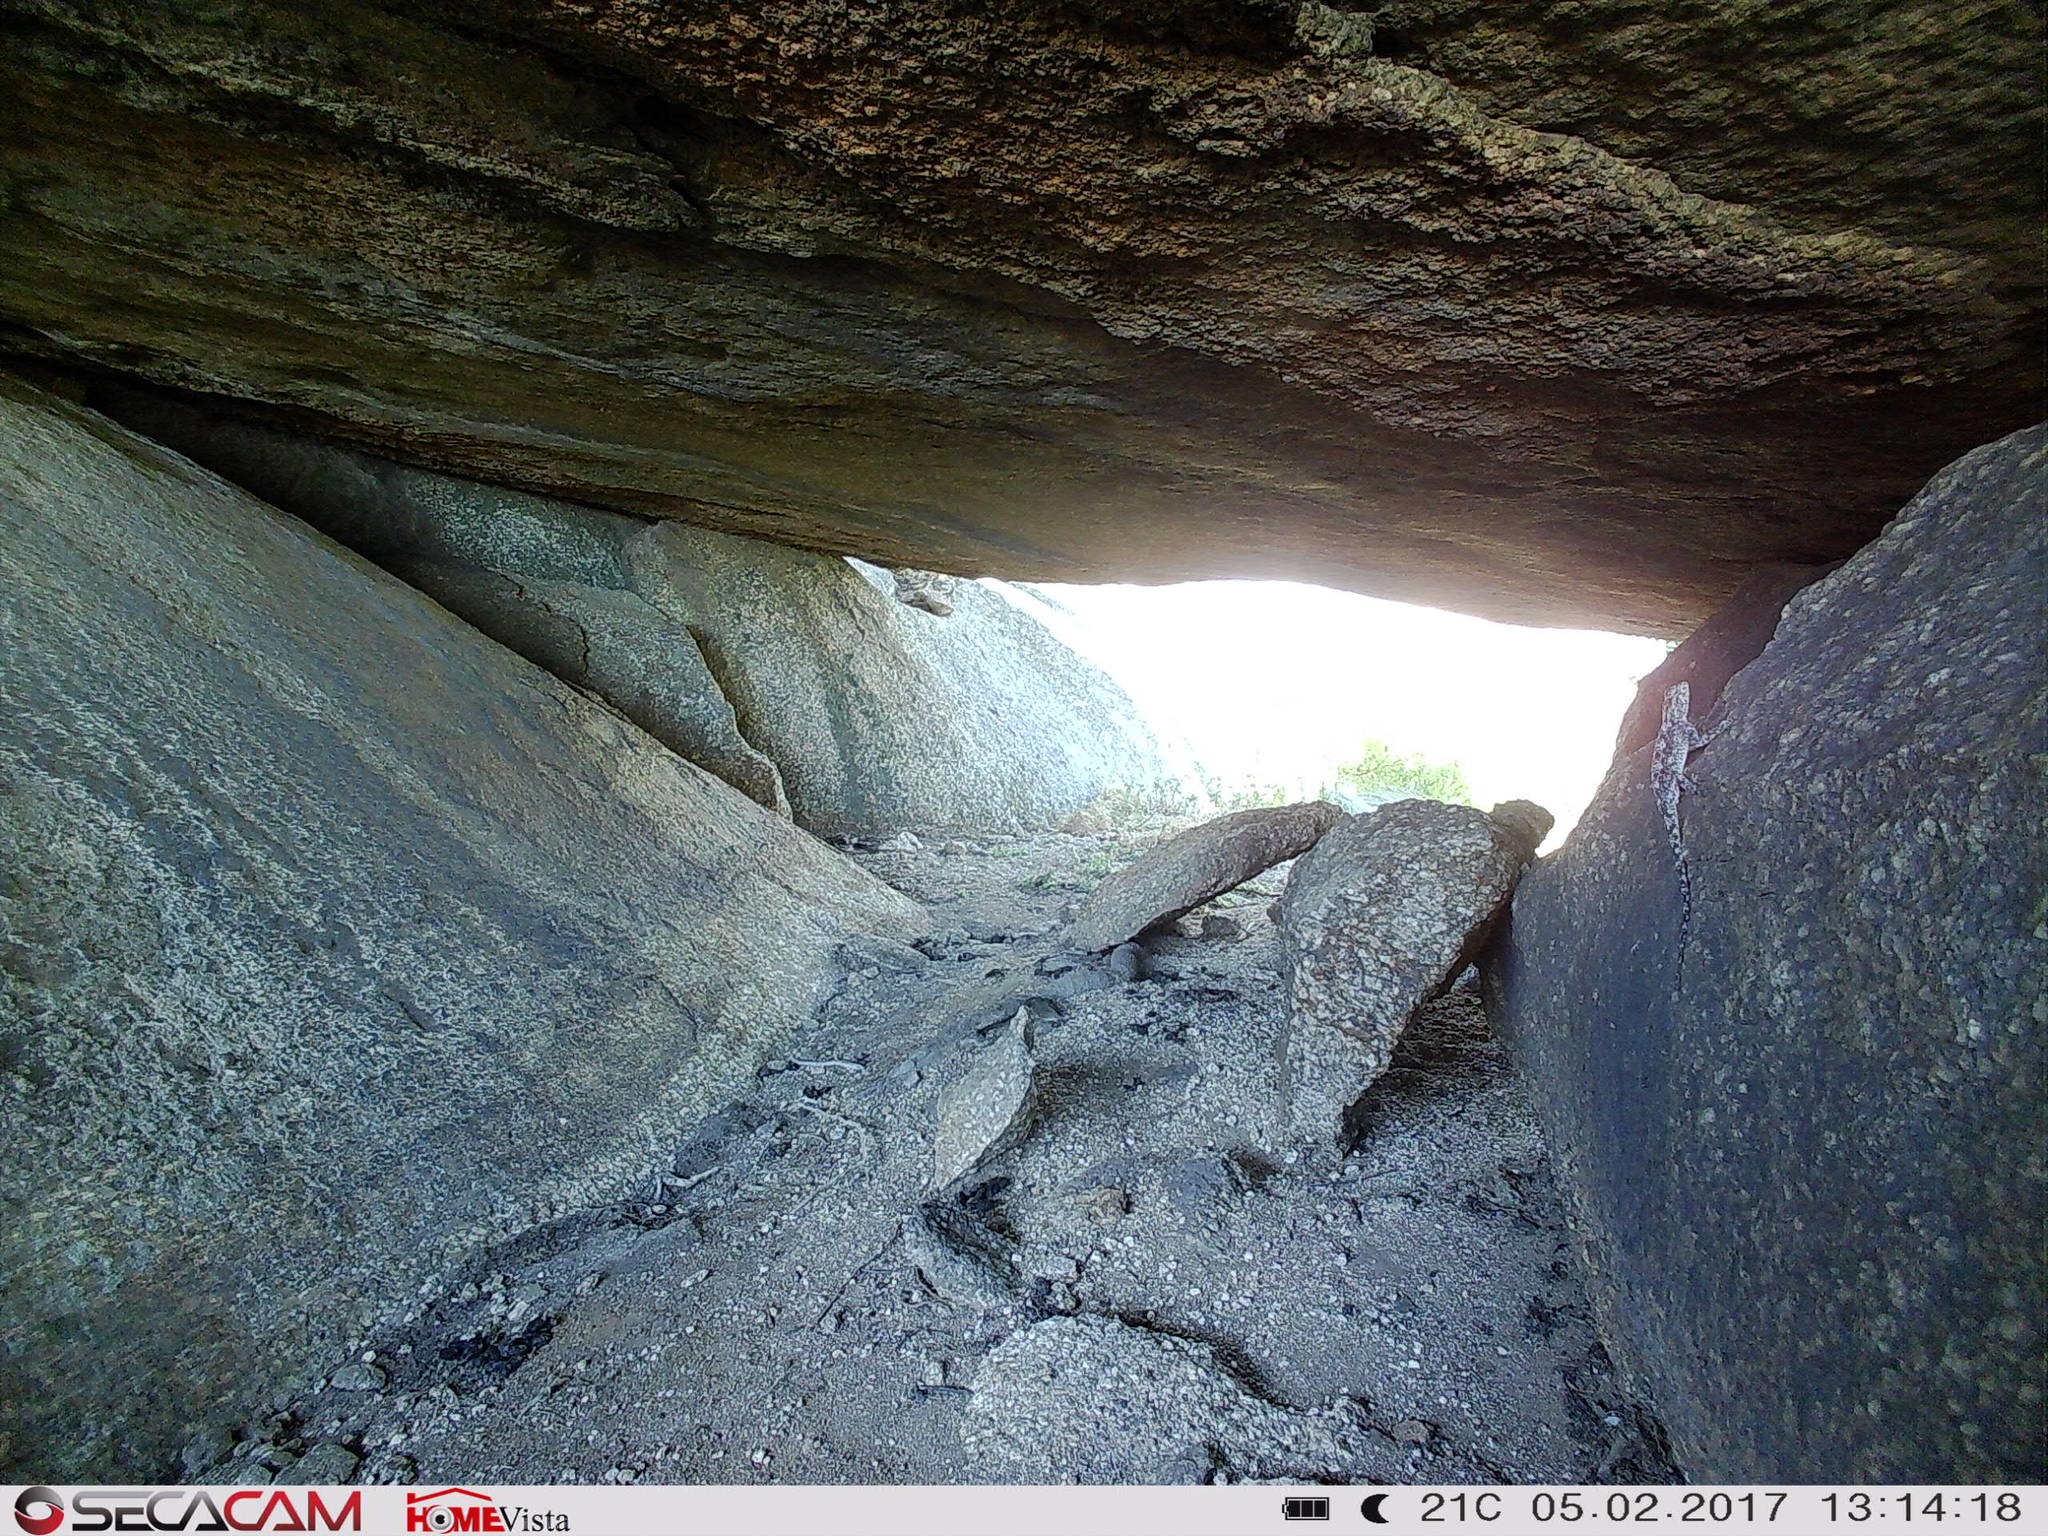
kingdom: Animalia
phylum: Chordata
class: Squamata
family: Agamidae
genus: Agama
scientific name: Agama atra
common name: Southern african rock agama
